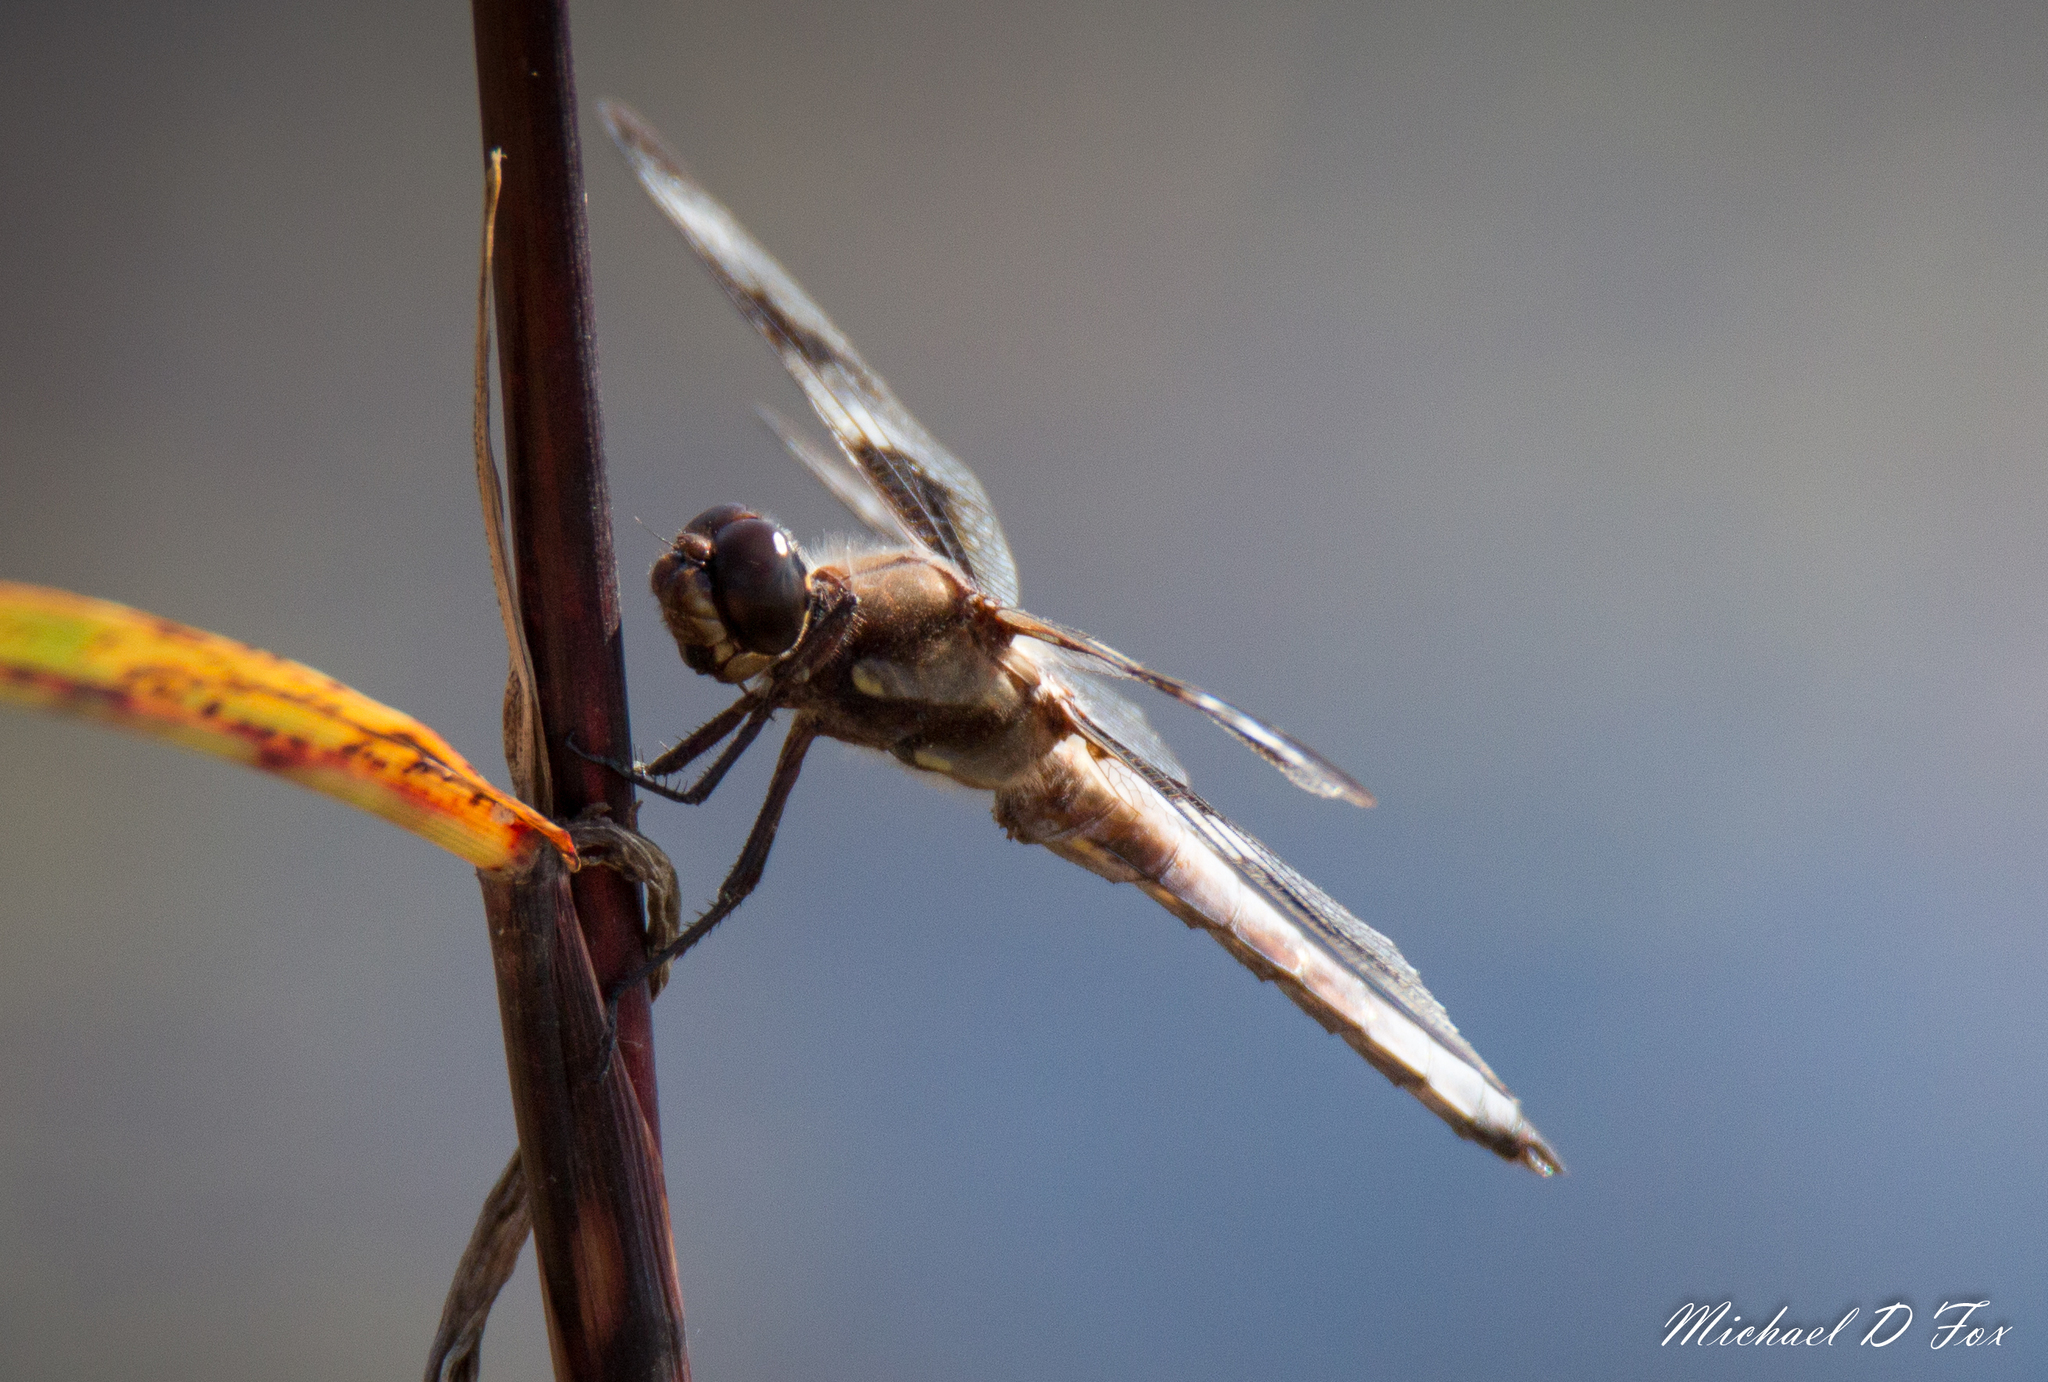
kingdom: Animalia
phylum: Arthropoda
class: Insecta
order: Odonata
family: Libellulidae
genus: Libellula
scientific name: Libellula pulchella
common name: Twelve-spotted skimmer
